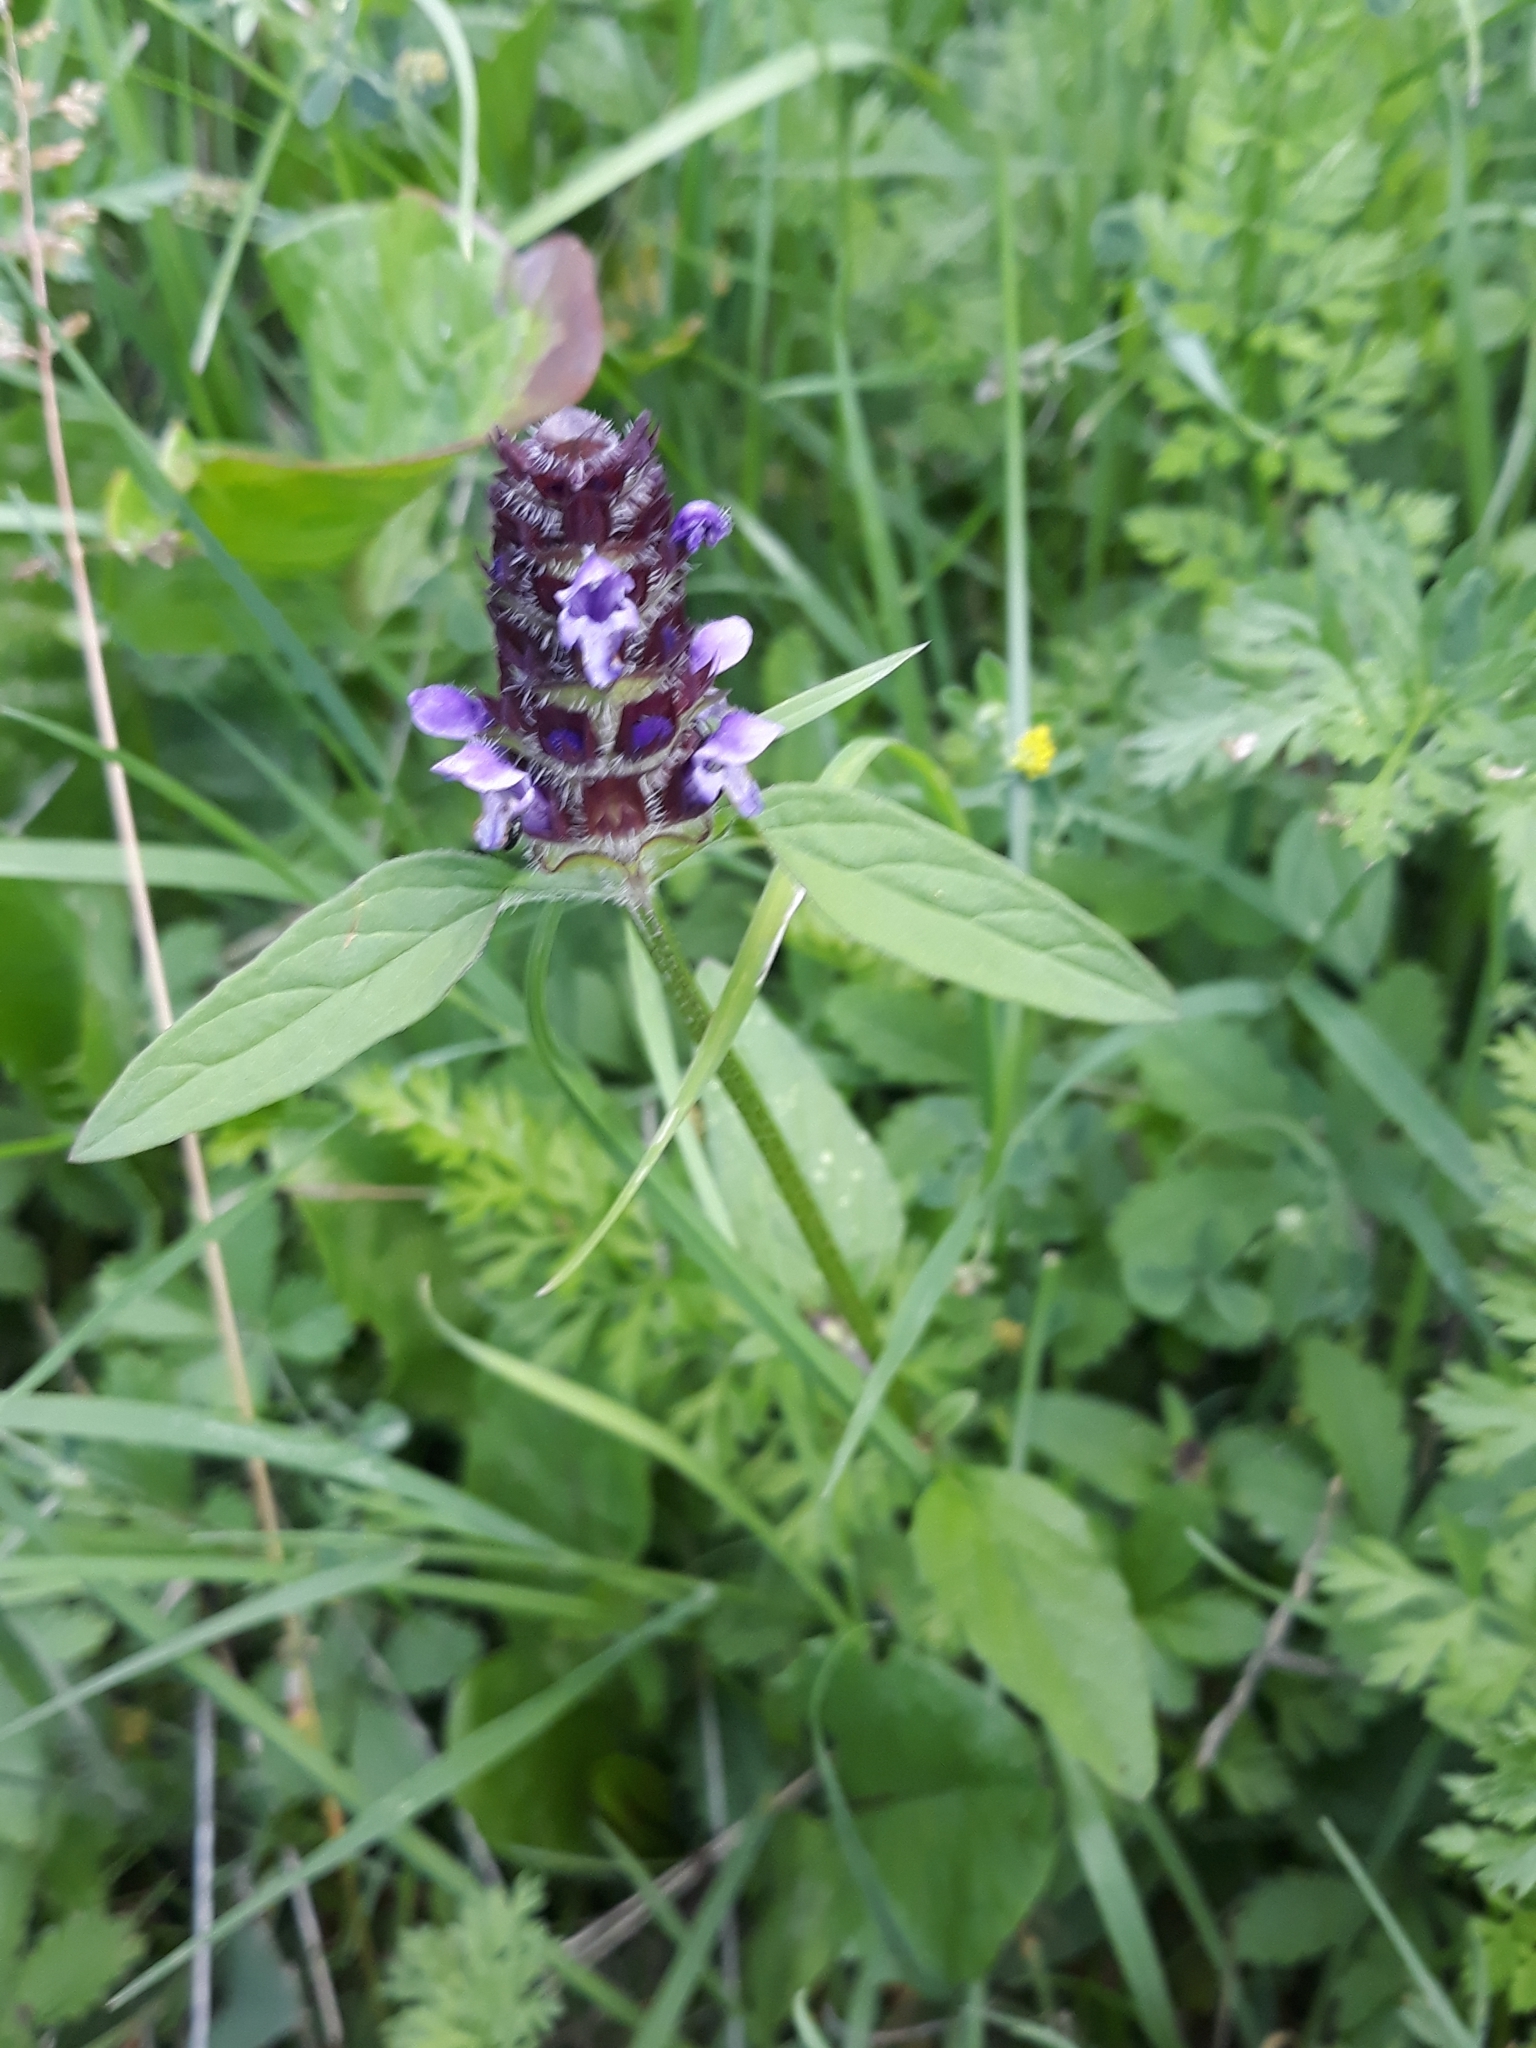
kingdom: Plantae
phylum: Tracheophyta
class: Magnoliopsida
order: Lamiales
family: Lamiaceae
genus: Prunella
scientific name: Prunella vulgaris
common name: Heal-all
